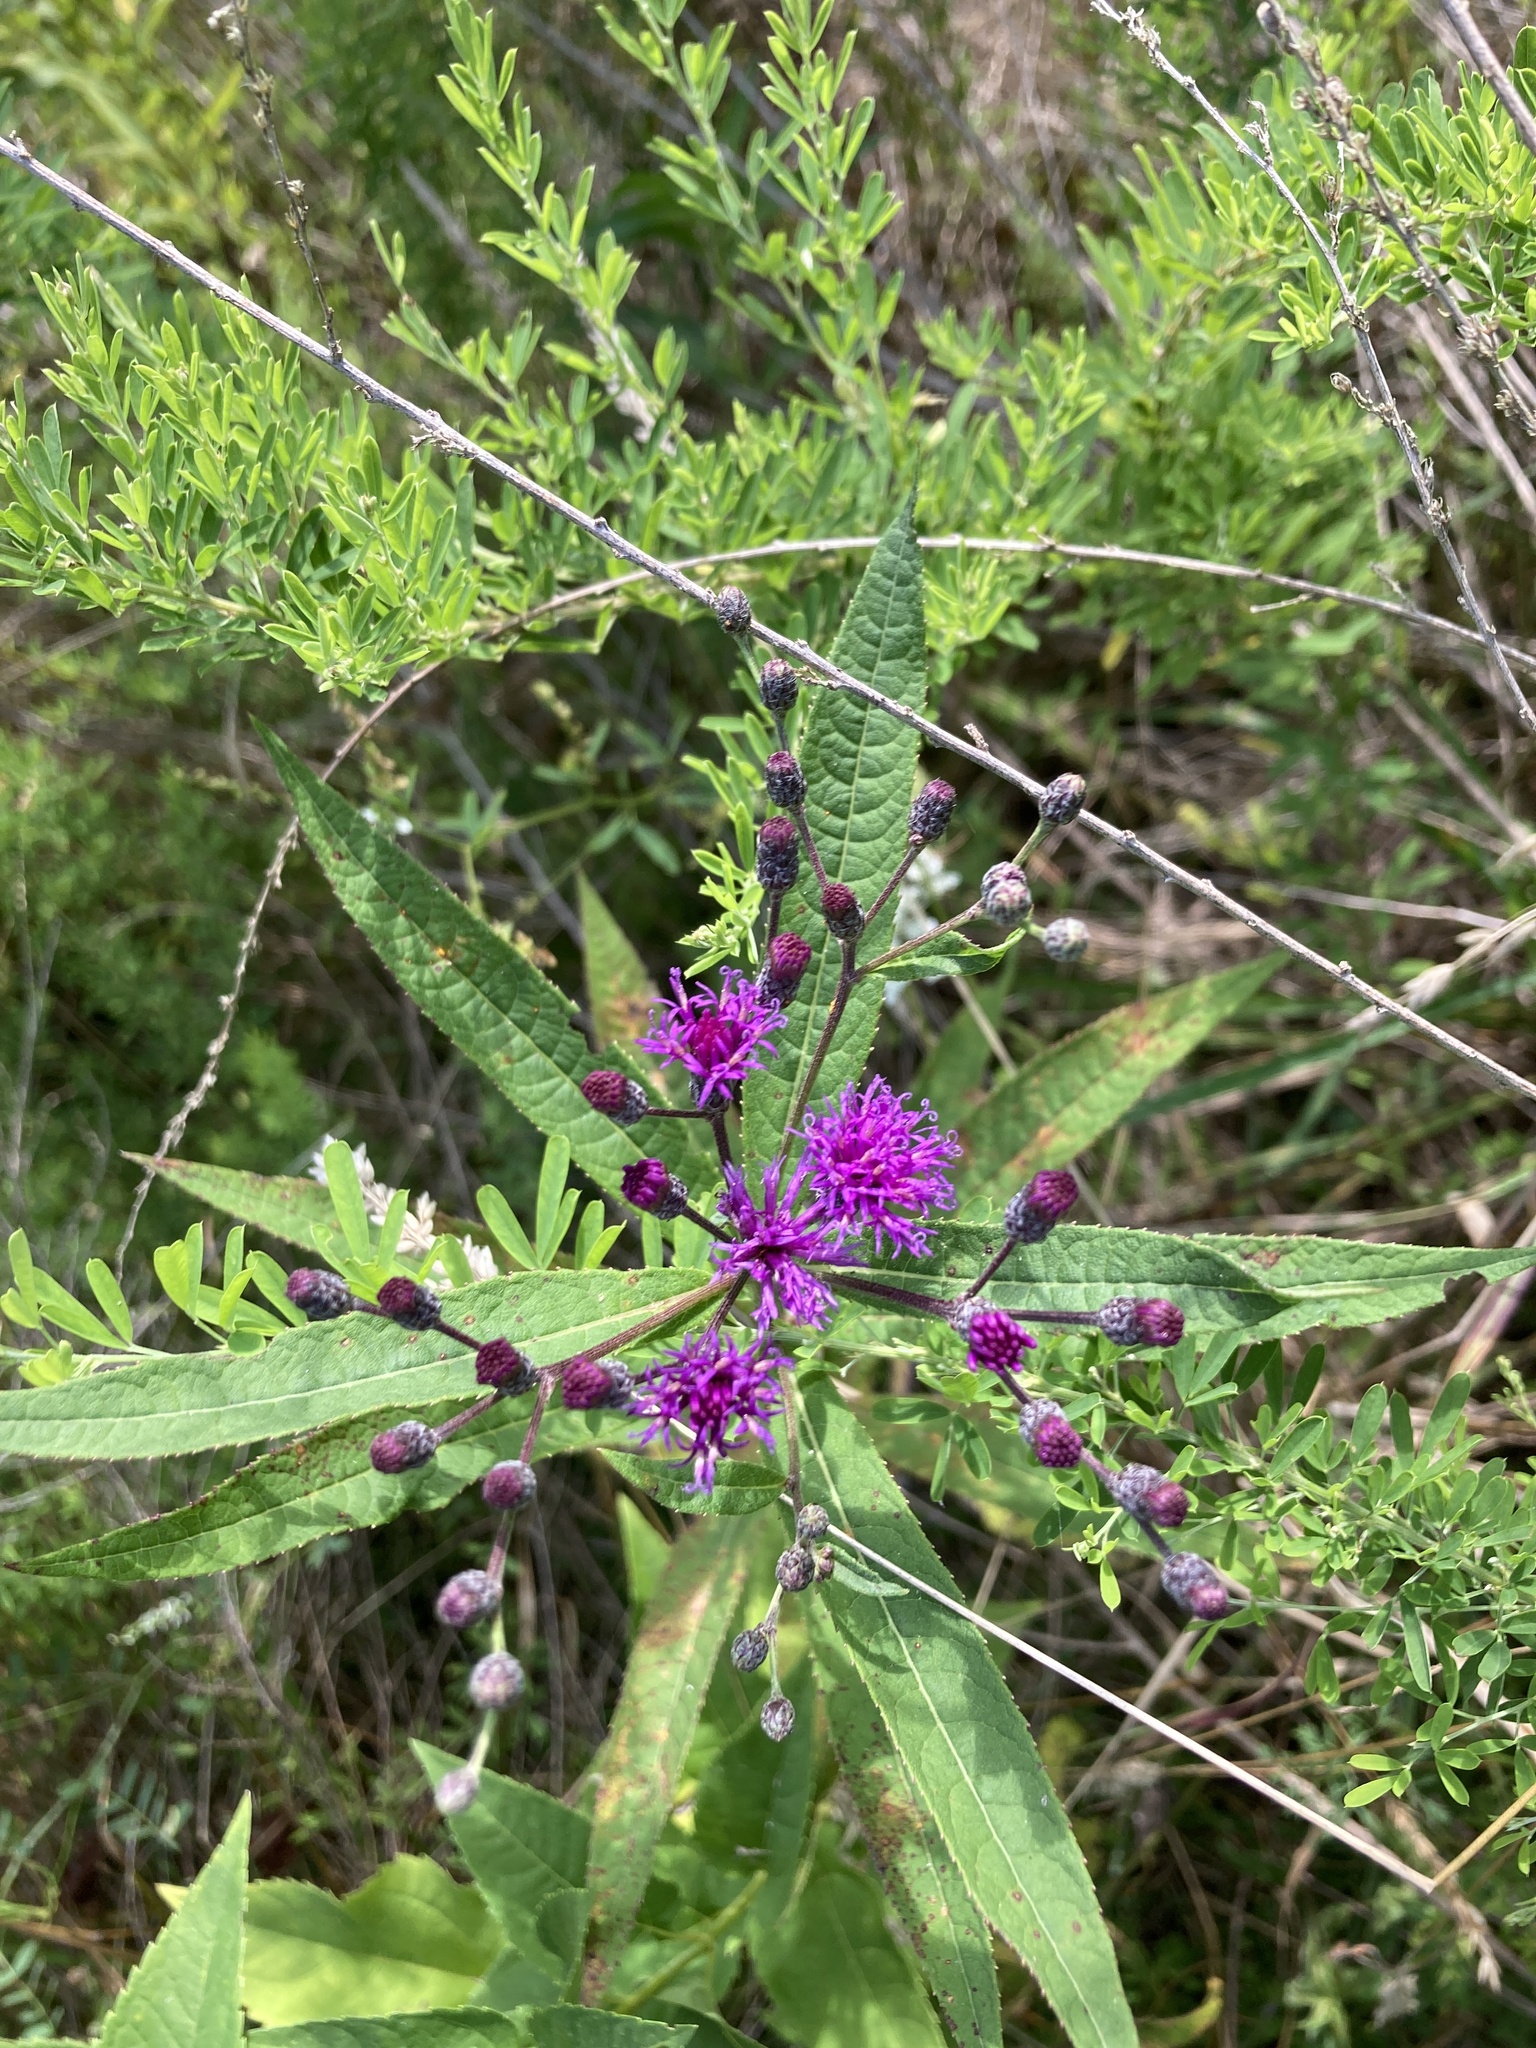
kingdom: Plantae
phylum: Tracheophyta
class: Magnoliopsida
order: Asterales
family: Asteraceae
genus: Vernonia
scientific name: Vernonia noveboracensis
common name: New york ironweed
